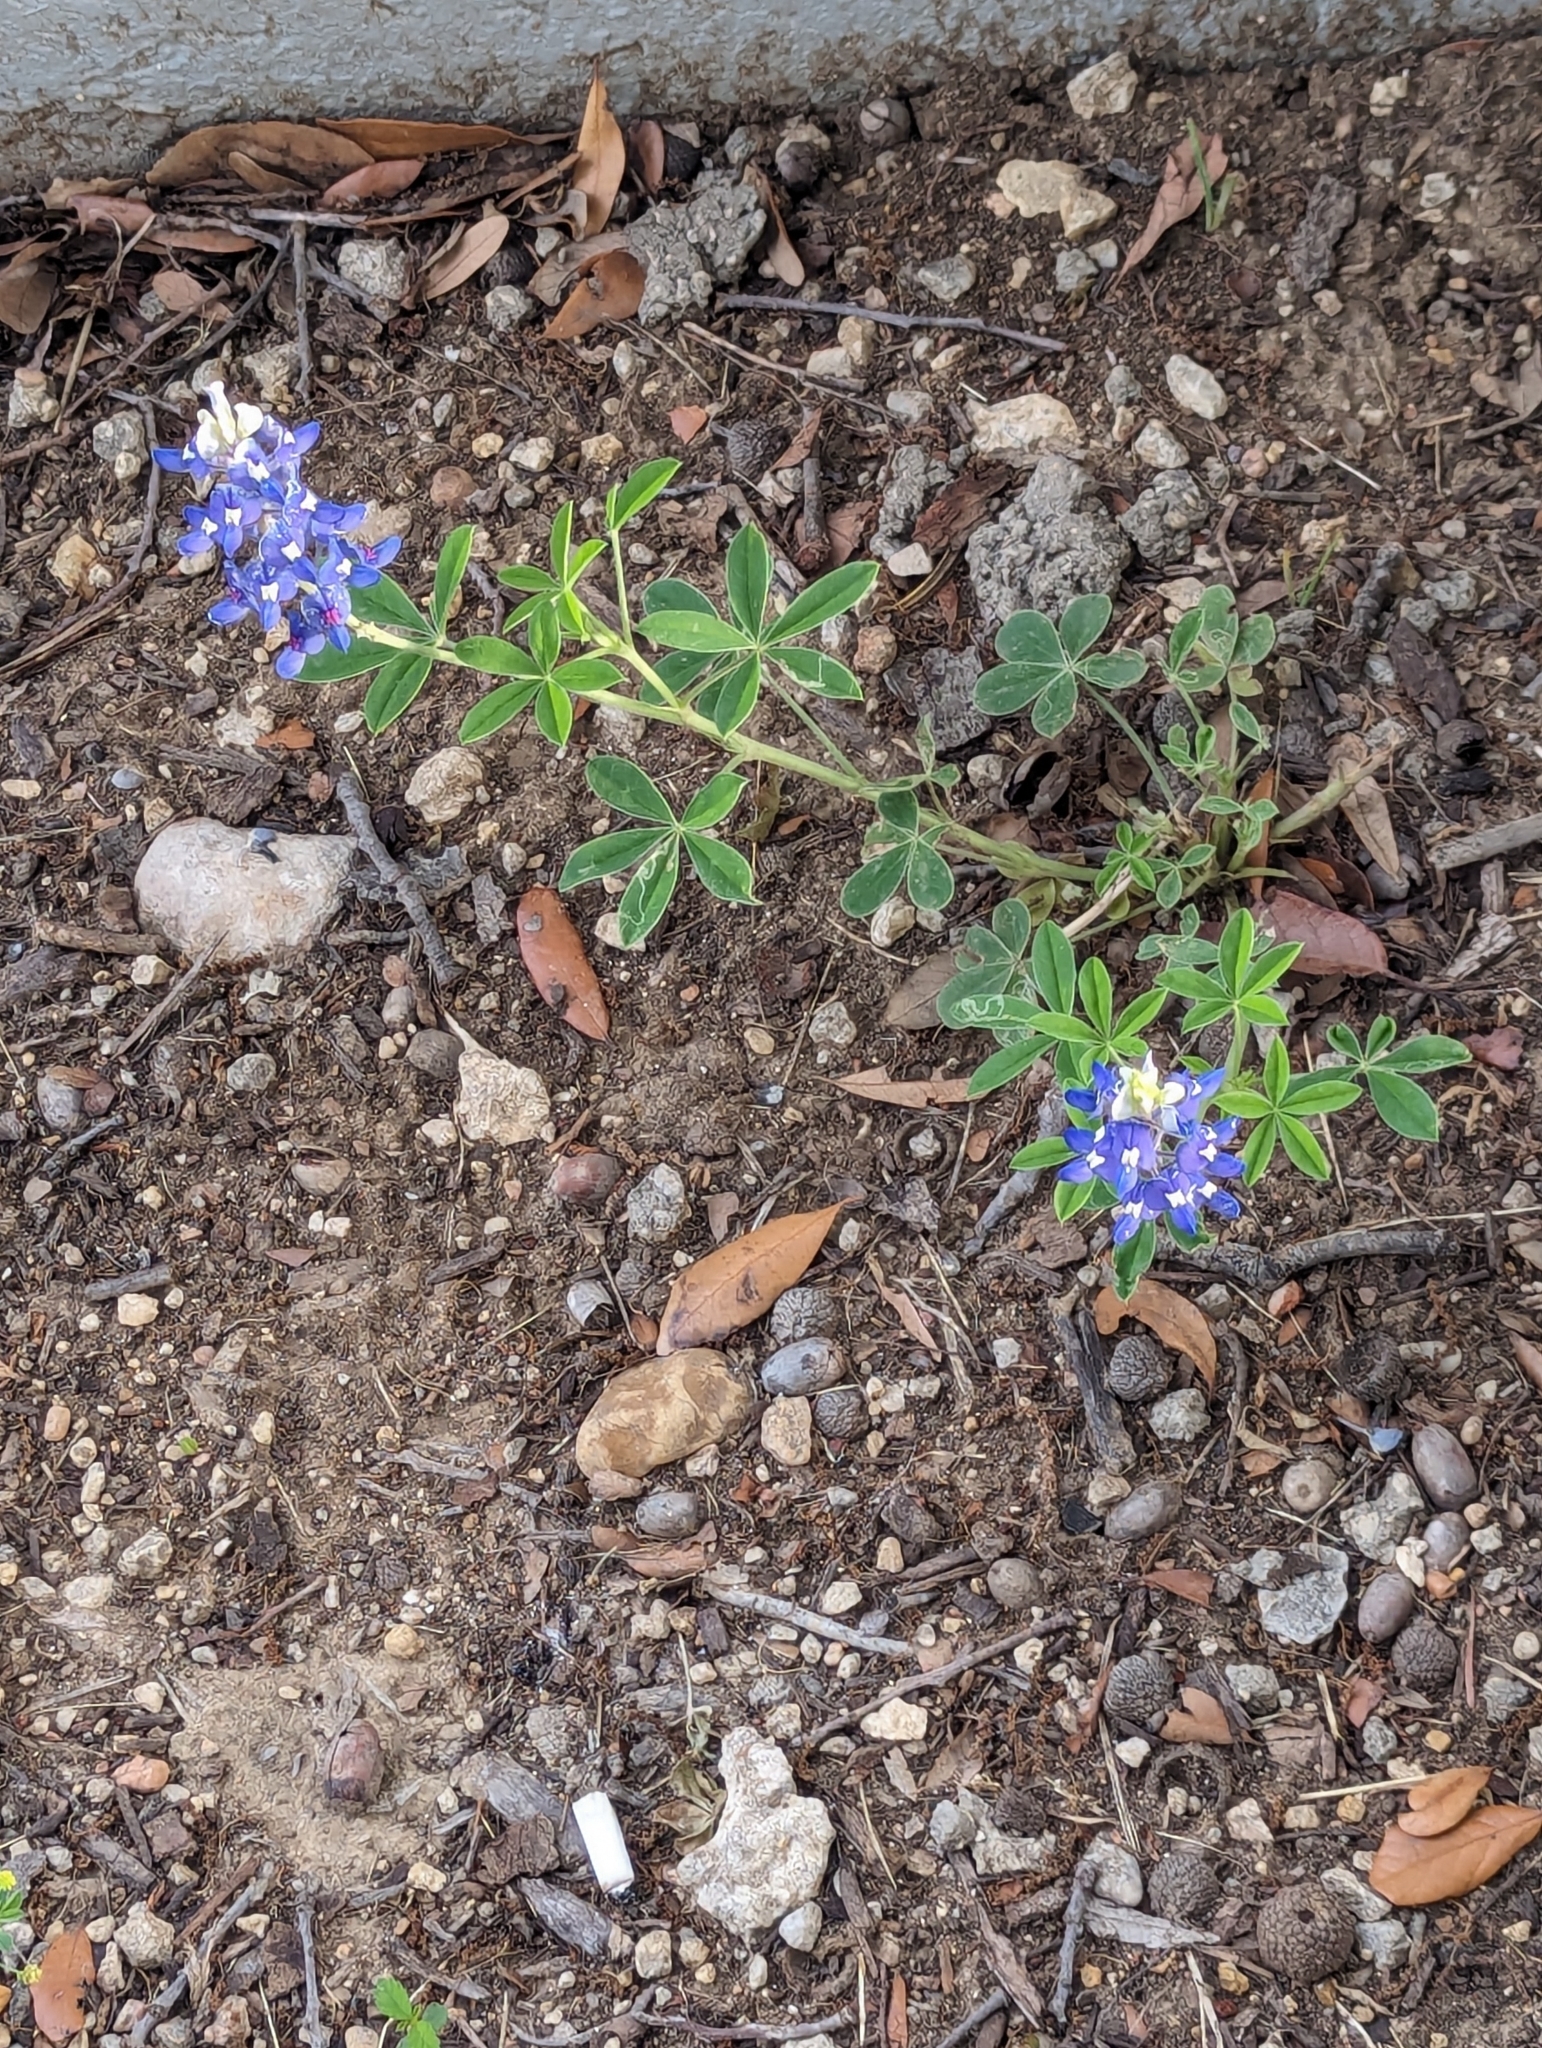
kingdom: Plantae
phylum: Tracheophyta
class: Magnoliopsida
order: Fabales
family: Fabaceae
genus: Lupinus
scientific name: Lupinus texensis
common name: Texas bluebonnet
